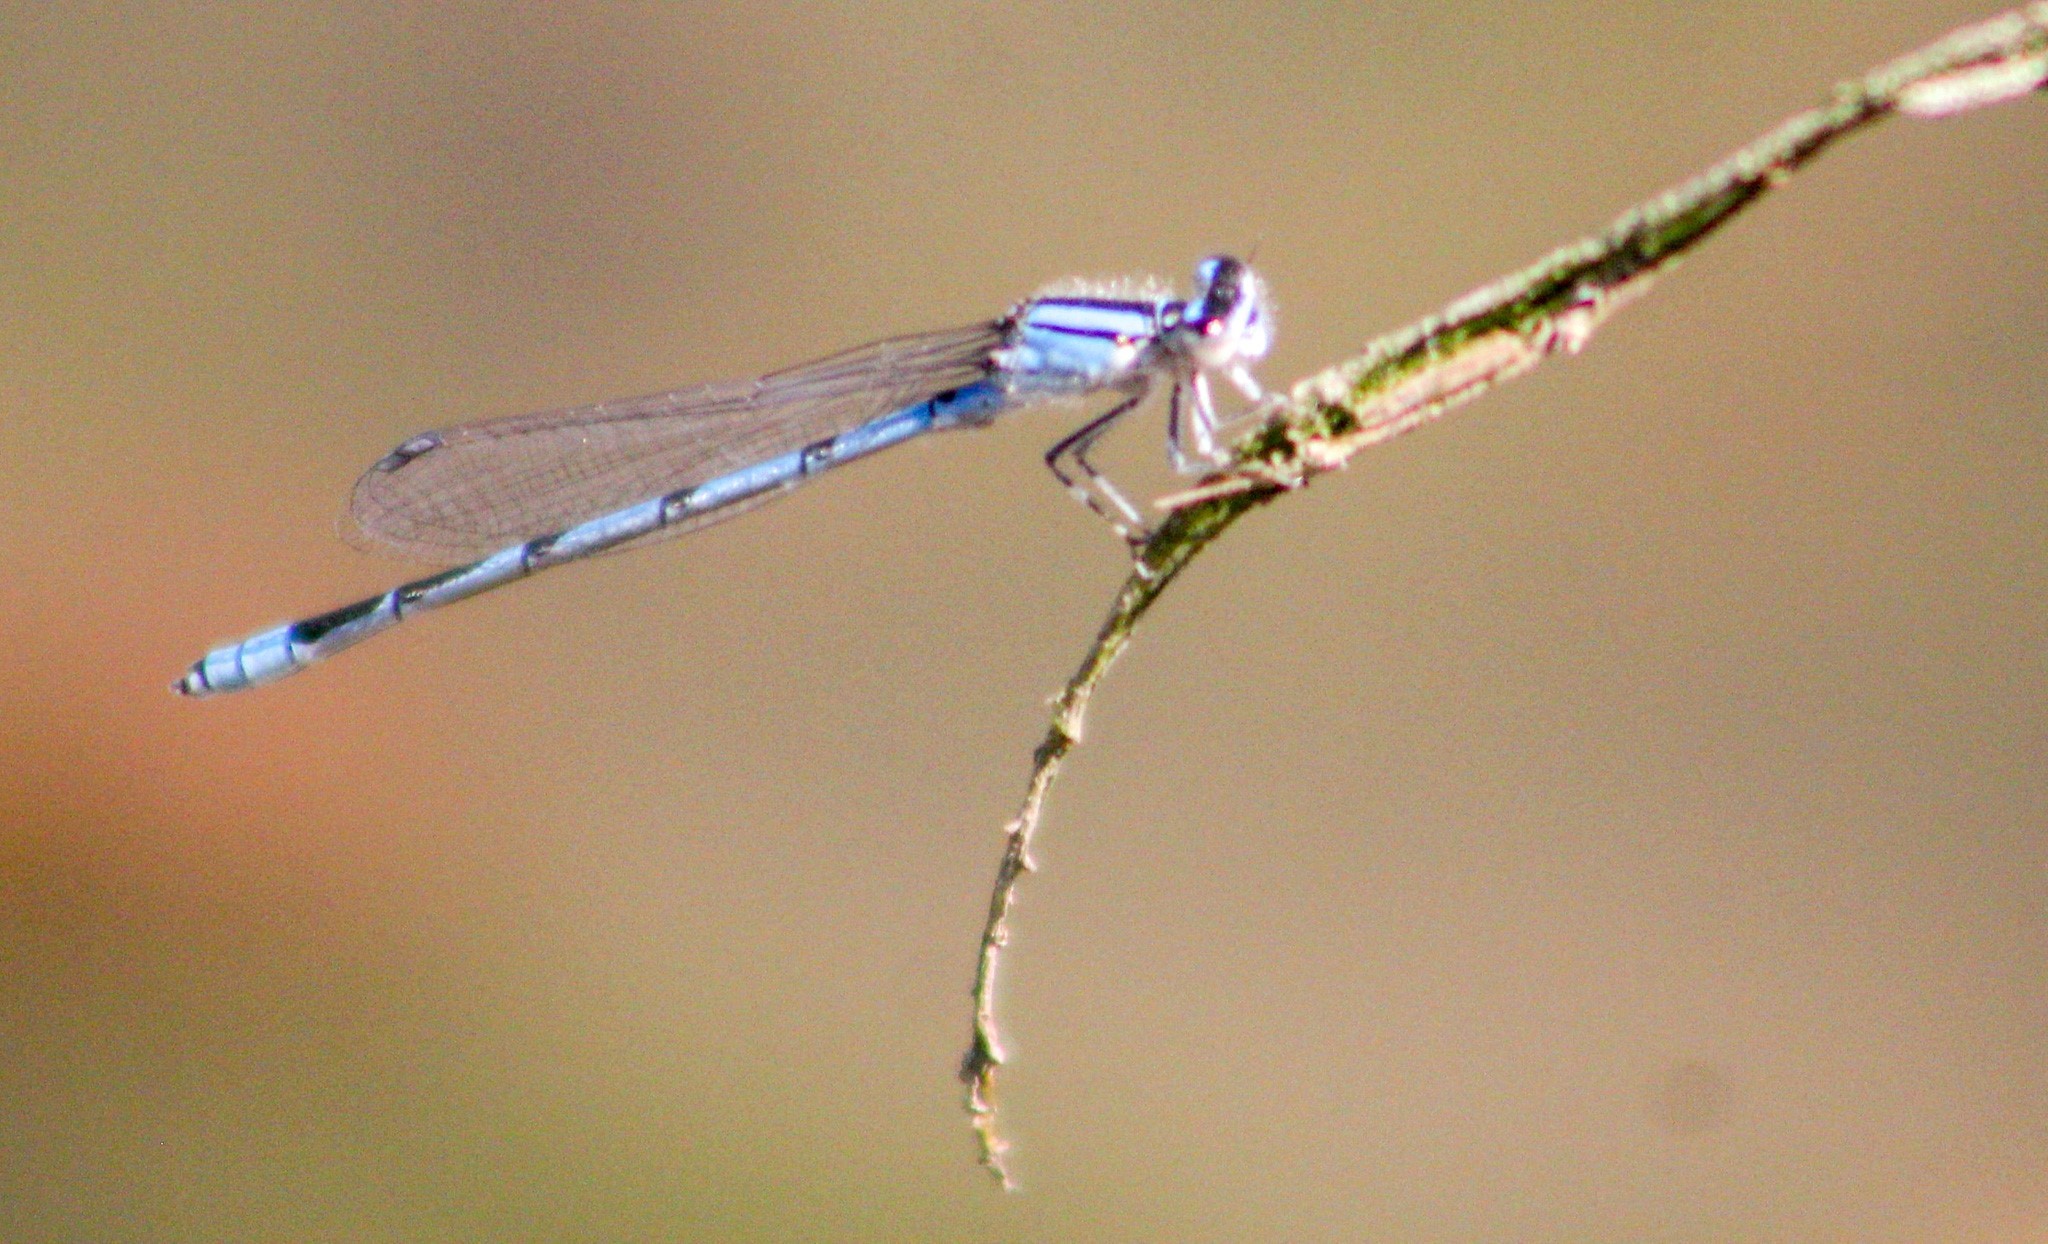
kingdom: Animalia
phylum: Arthropoda
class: Insecta
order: Odonata
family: Coenagrionidae
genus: Enallagma
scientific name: Enallagma civile
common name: Damselfly
